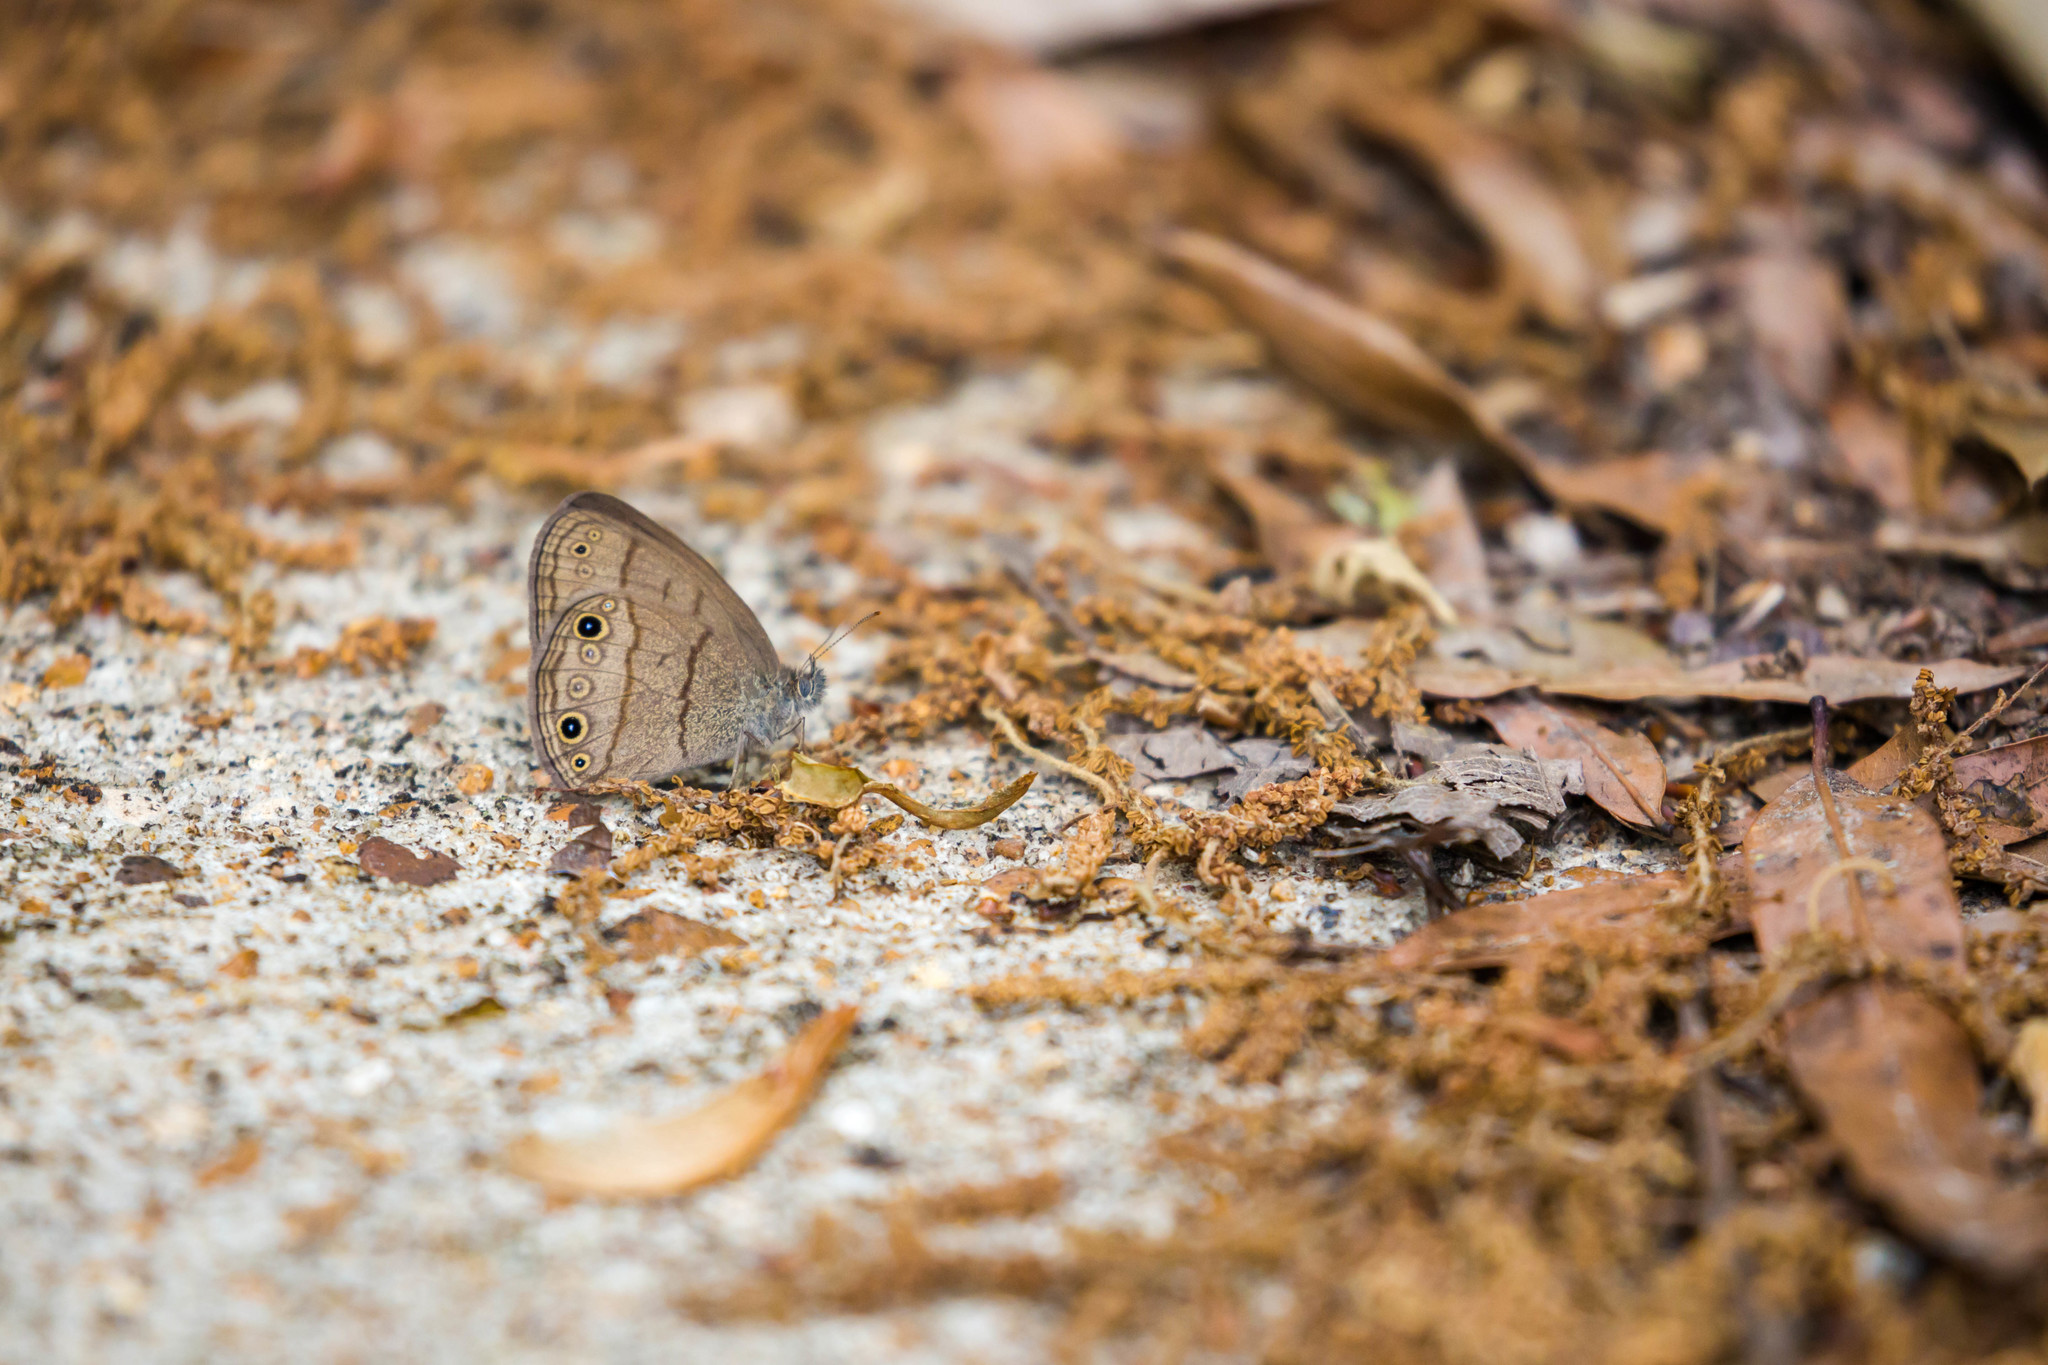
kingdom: Animalia
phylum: Arthropoda
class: Insecta
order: Lepidoptera
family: Nymphalidae
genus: Hermeuptychia
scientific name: Hermeuptychia hermes
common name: Hermes satyr
